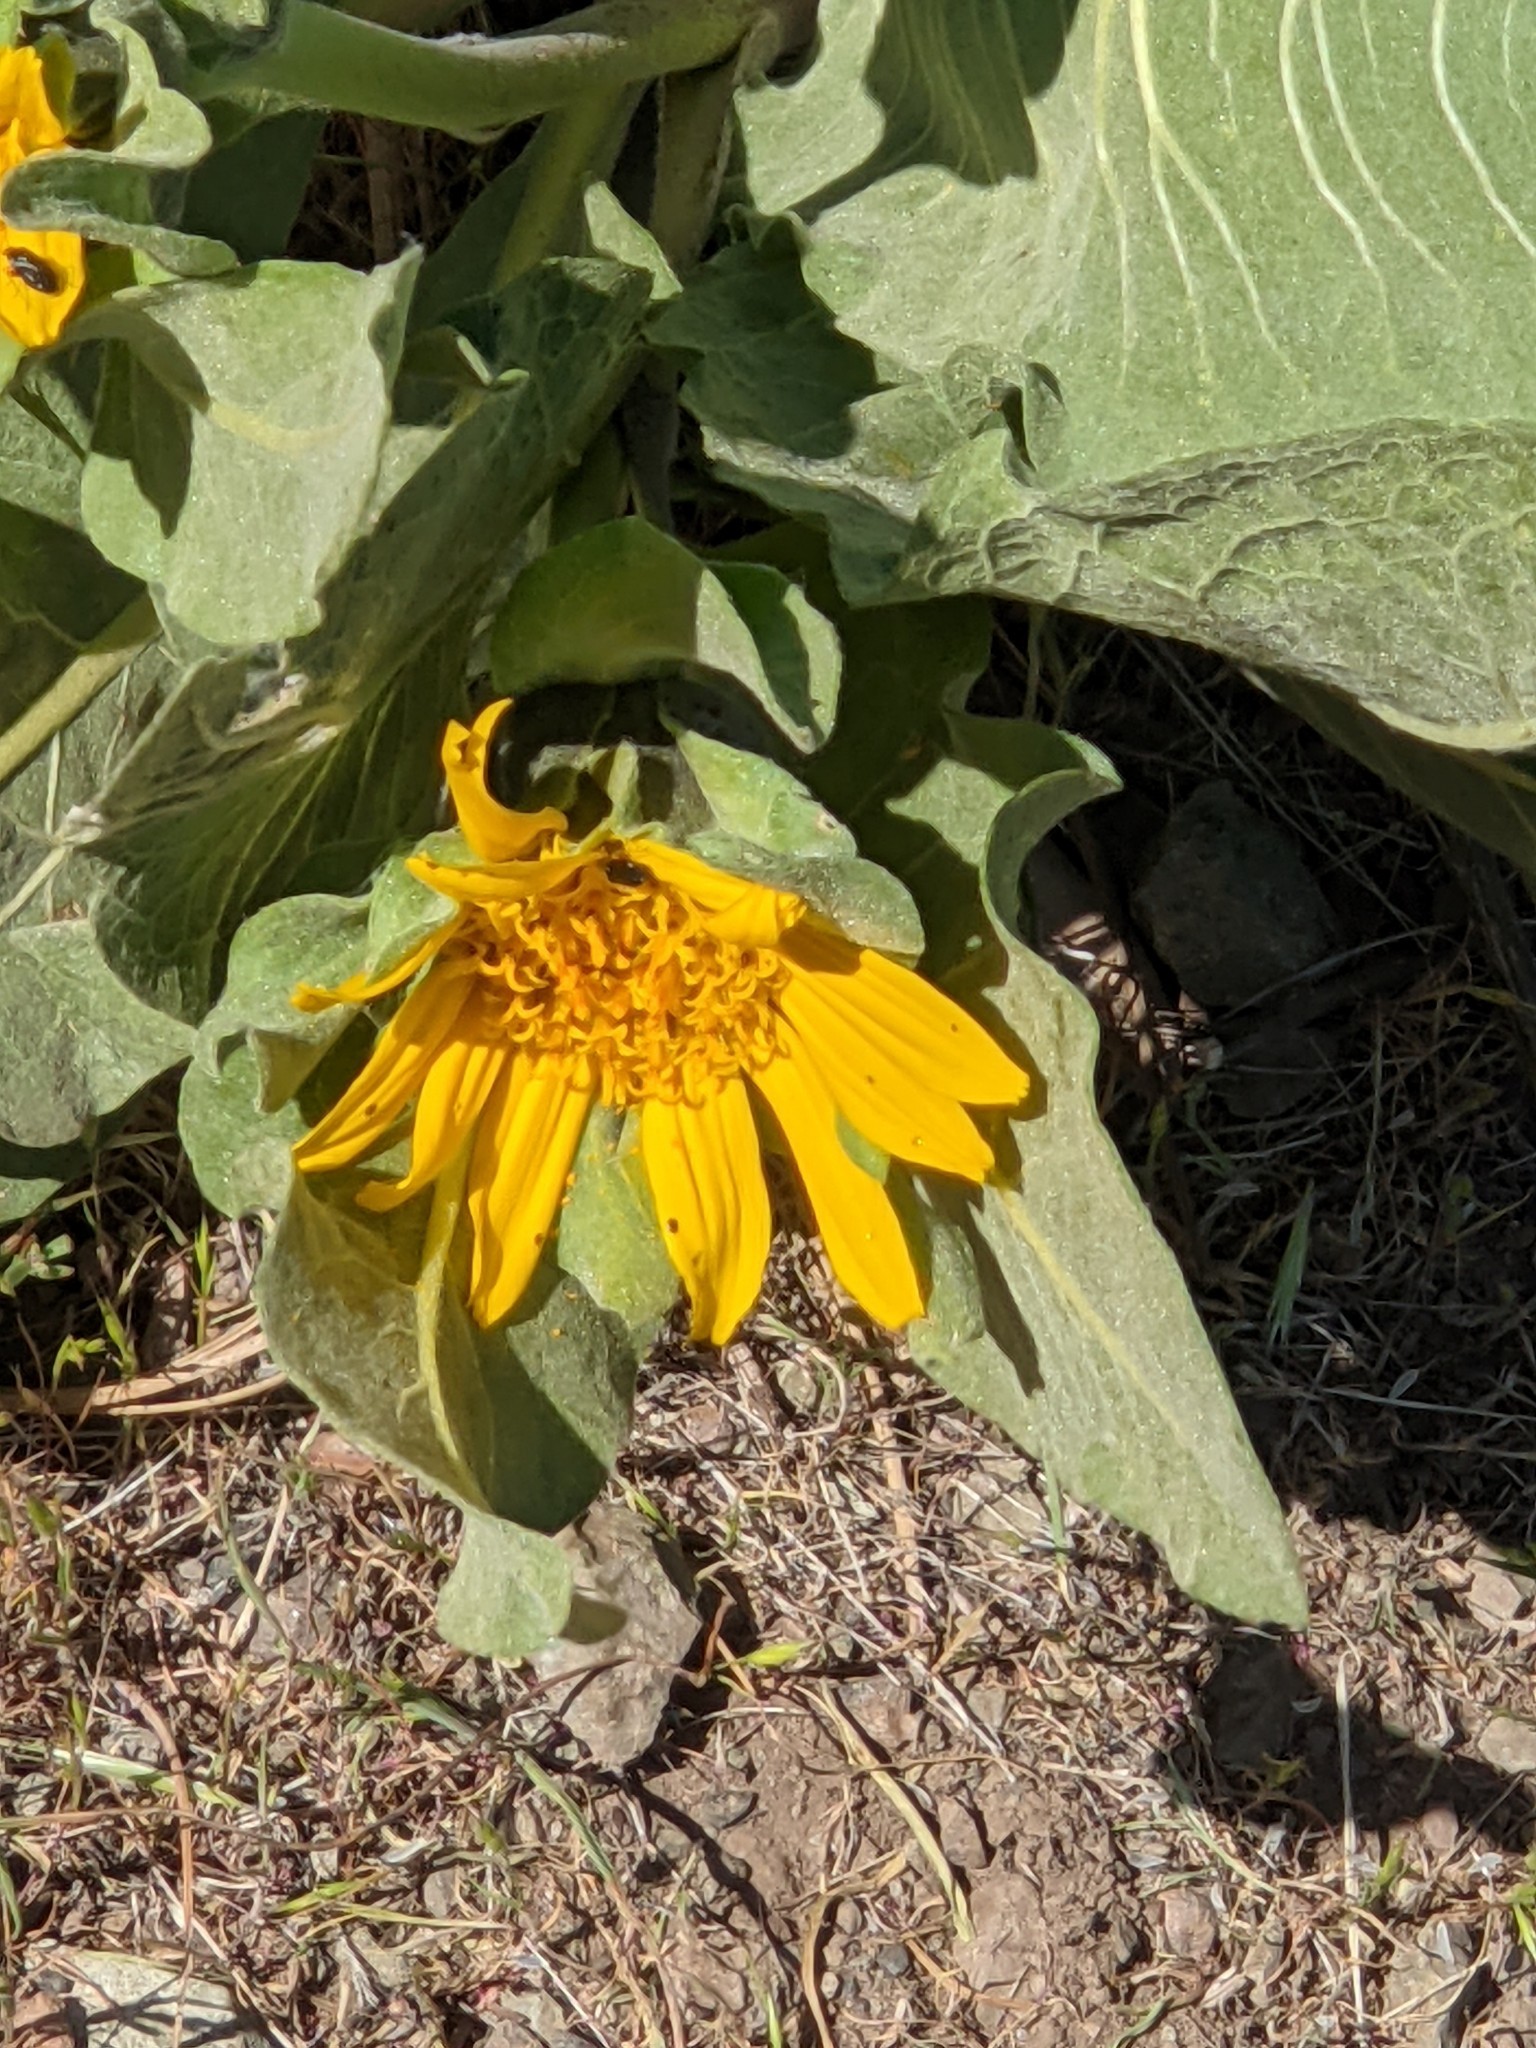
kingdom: Plantae
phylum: Tracheophyta
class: Magnoliopsida
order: Asterales
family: Asteraceae
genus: Wyethia
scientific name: Wyethia glabra
